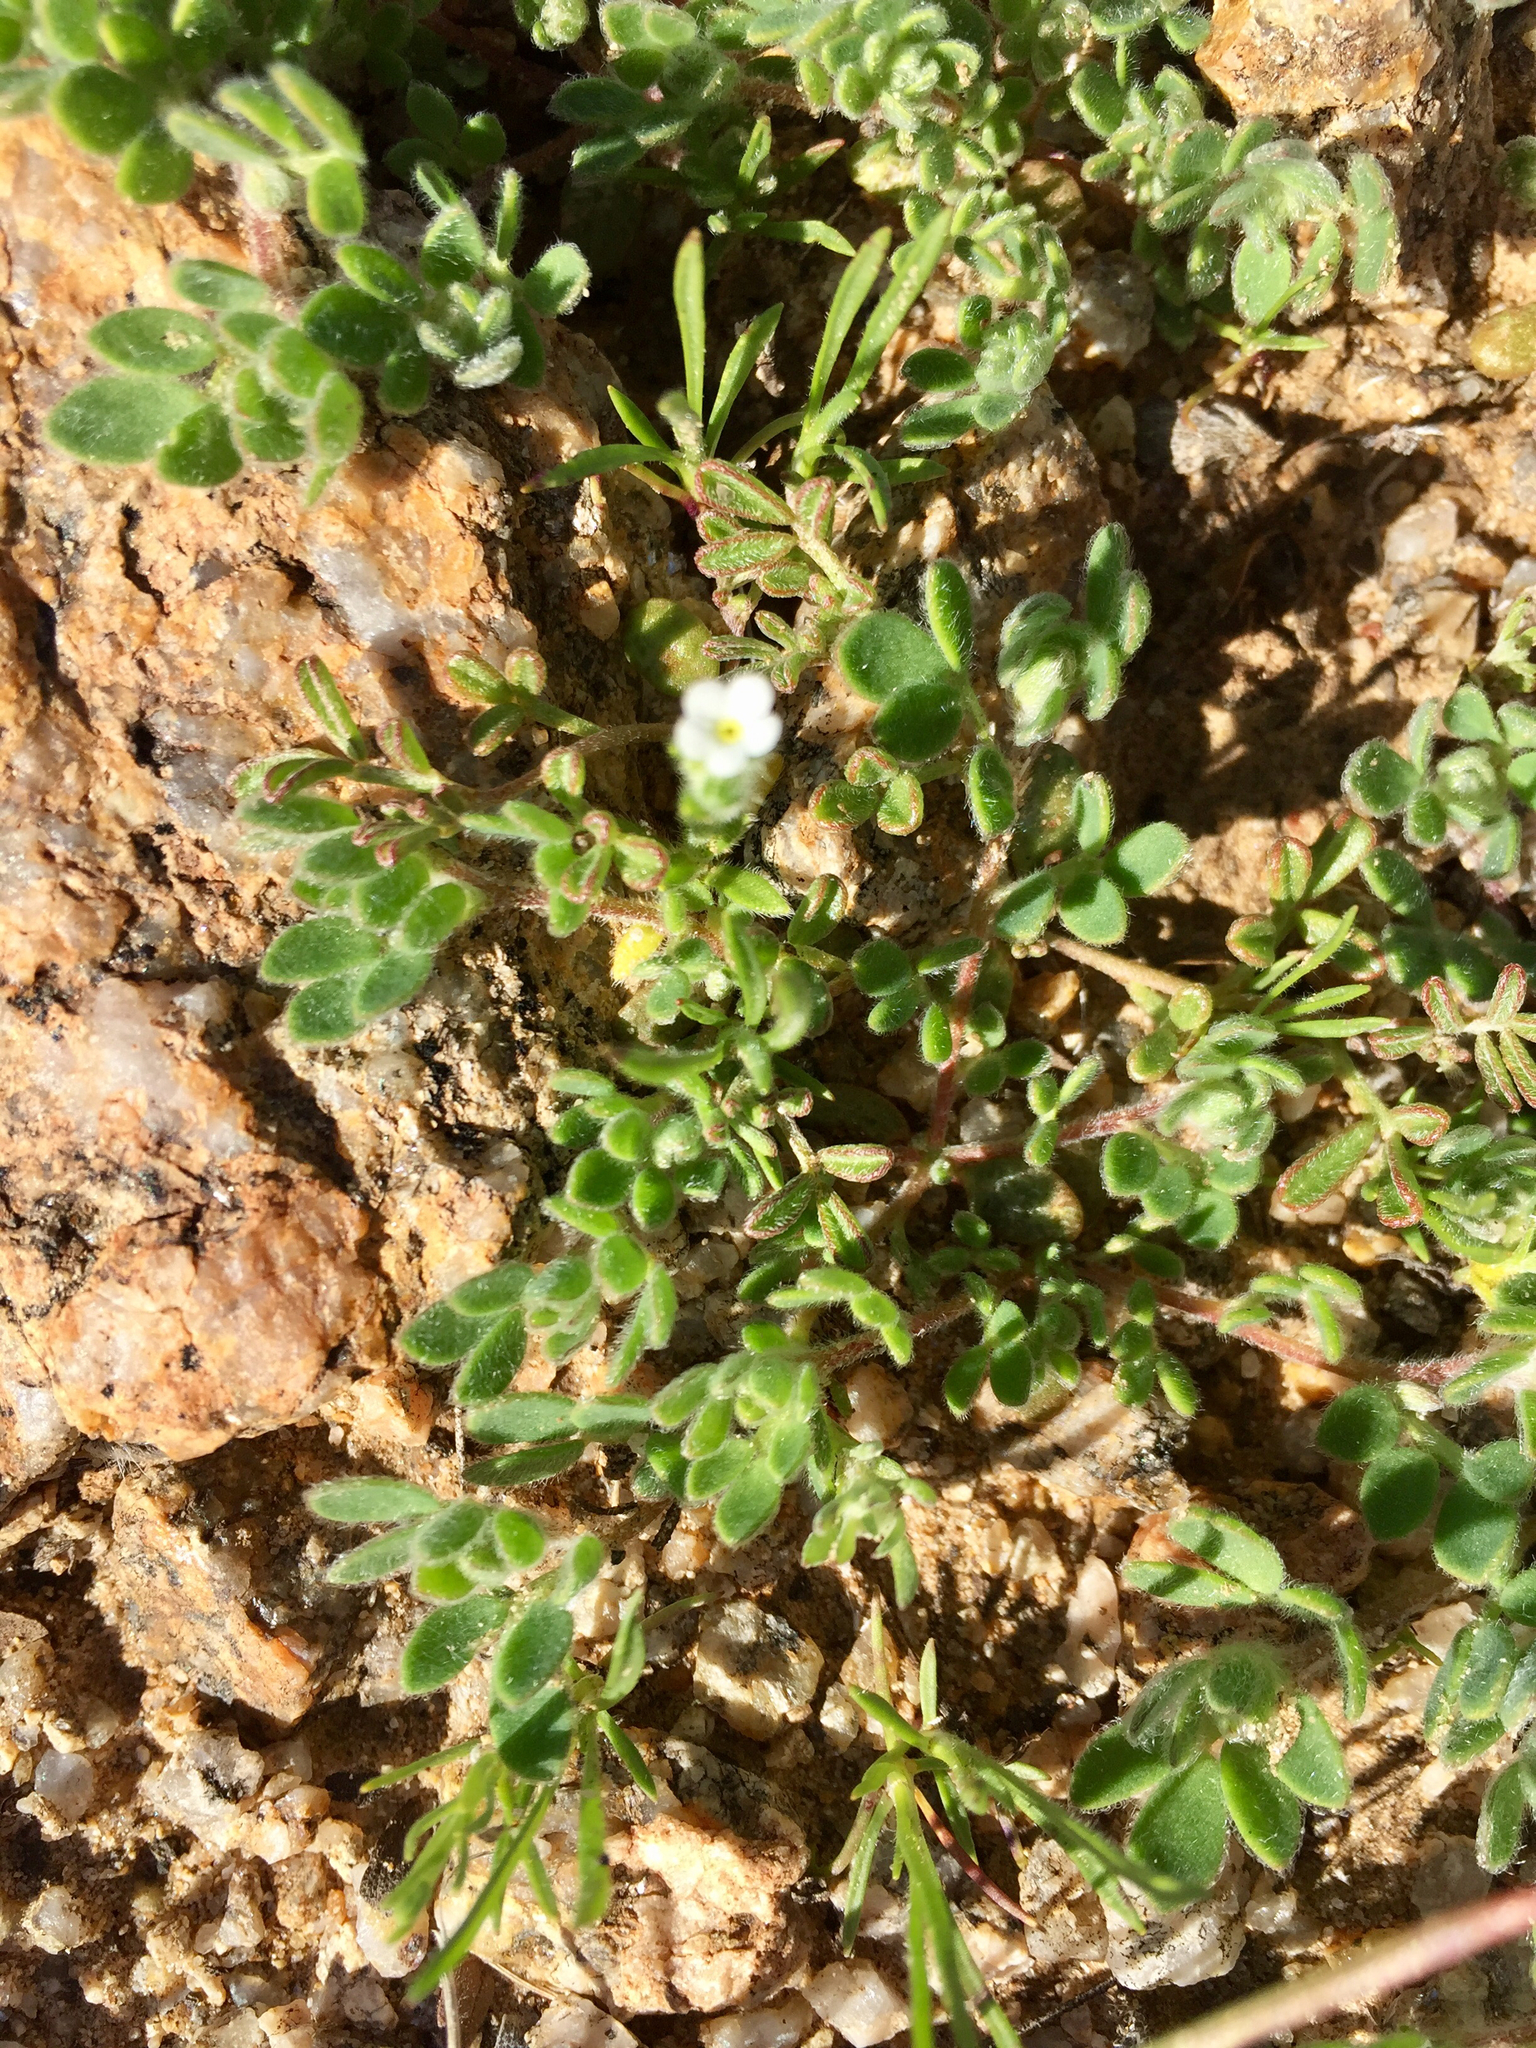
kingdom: Plantae
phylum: Tracheophyta
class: Magnoliopsida
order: Fabales
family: Fabaceae
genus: Acmispon
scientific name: Acmispon brachycarpus
